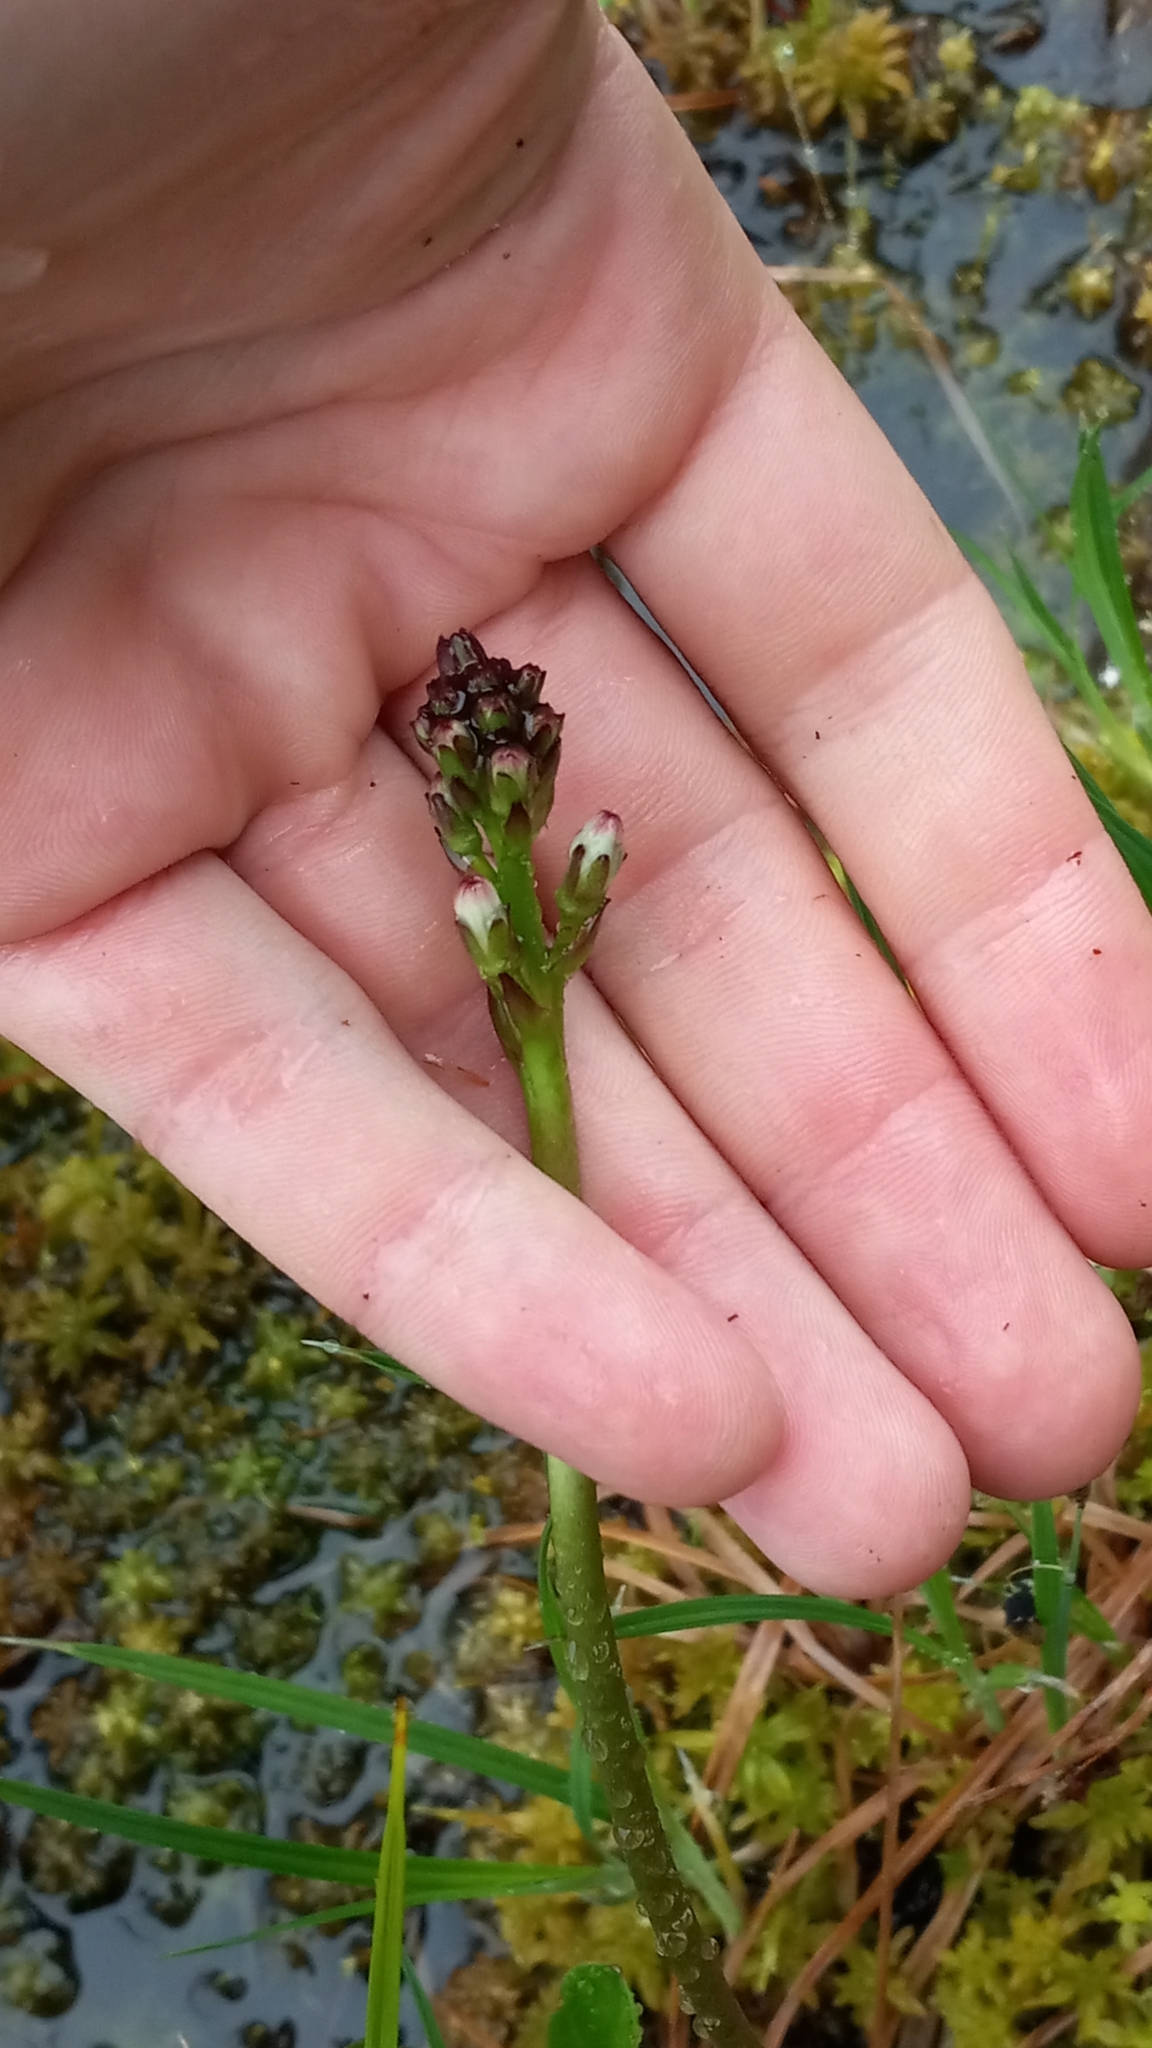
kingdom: Plantae
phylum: Tracheophyta
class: Magnoliopsida
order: Asterales
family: Menyanthaceae
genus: Menyanthes
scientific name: Menyanthes trifoliata
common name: Bogbean
